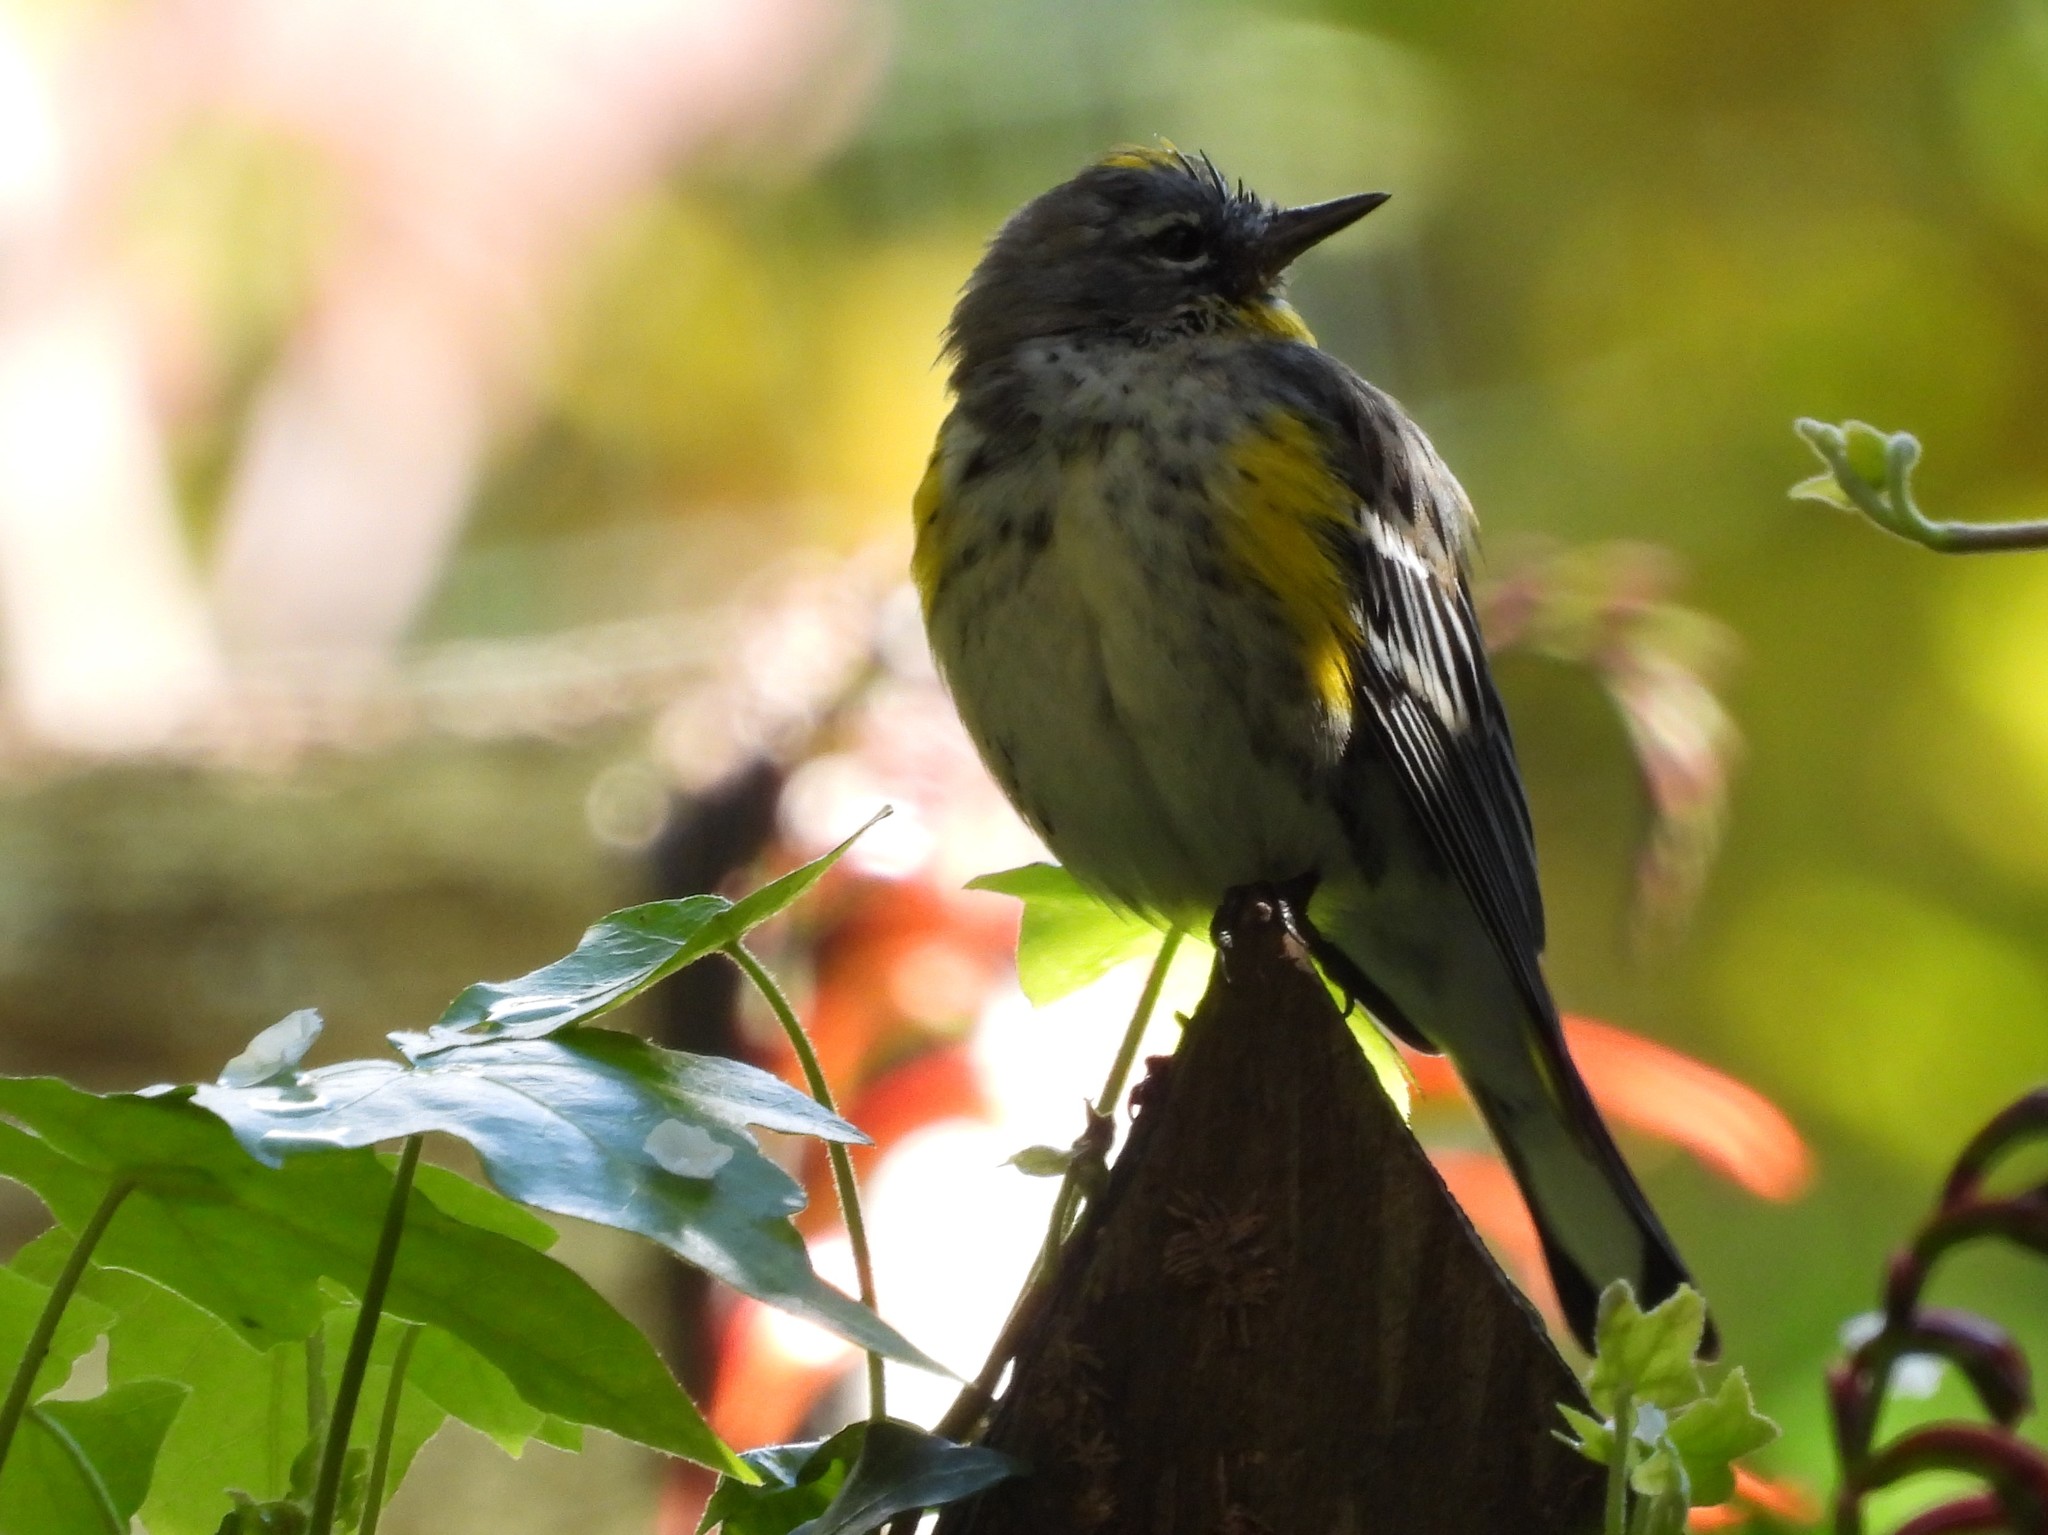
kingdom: Animalia
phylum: Chordata
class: Aves
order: Passeriformes
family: Parulidae
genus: Setophaga
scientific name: Setophaga coronata
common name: Myrtle warbler
